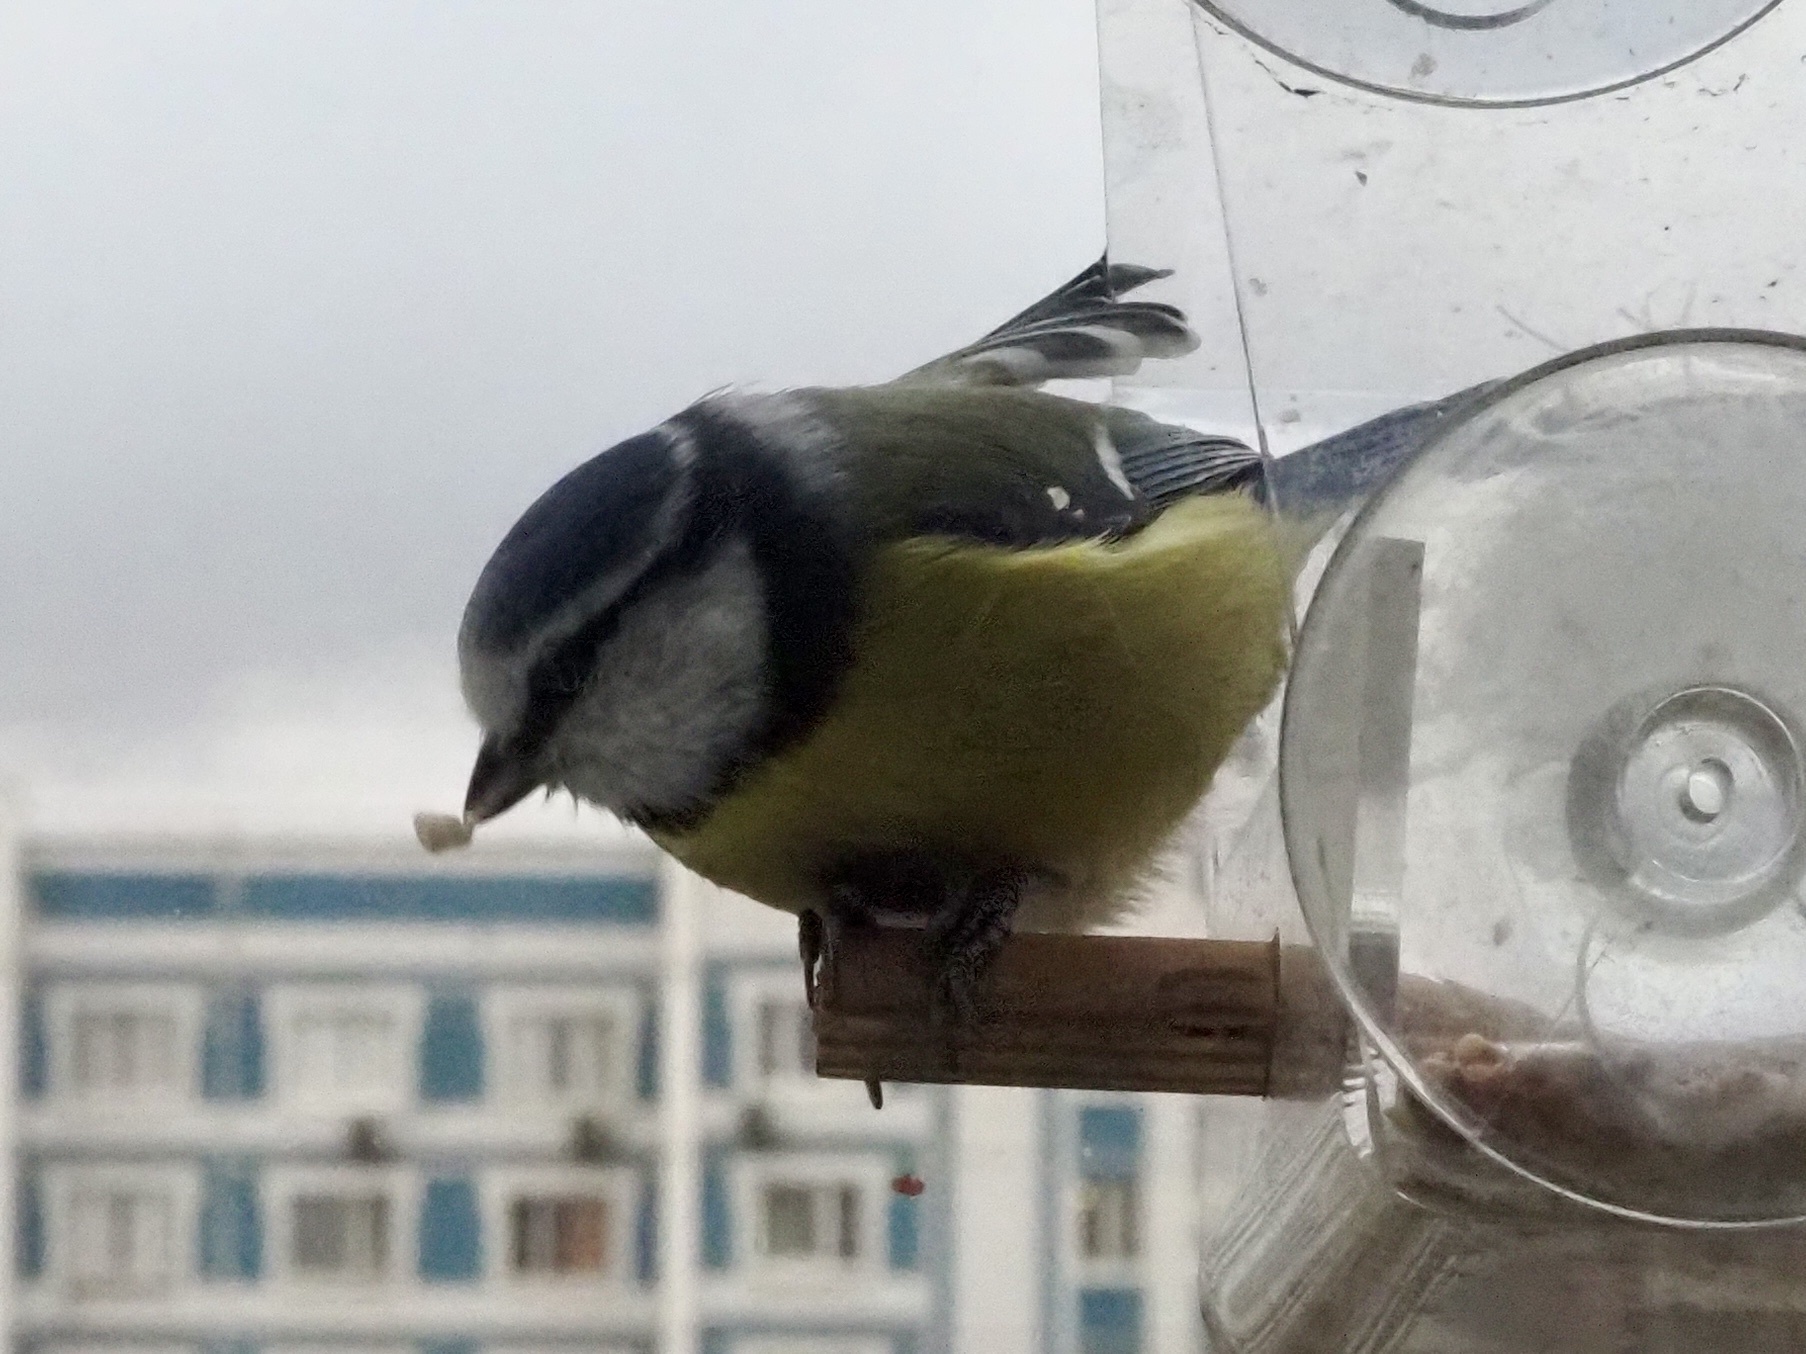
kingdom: Animalia
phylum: Chordata
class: Aves
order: Passeriformes
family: Paridae
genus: Cyanistes
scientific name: Cyanistes caeruleus
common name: Eurasian blue tit
